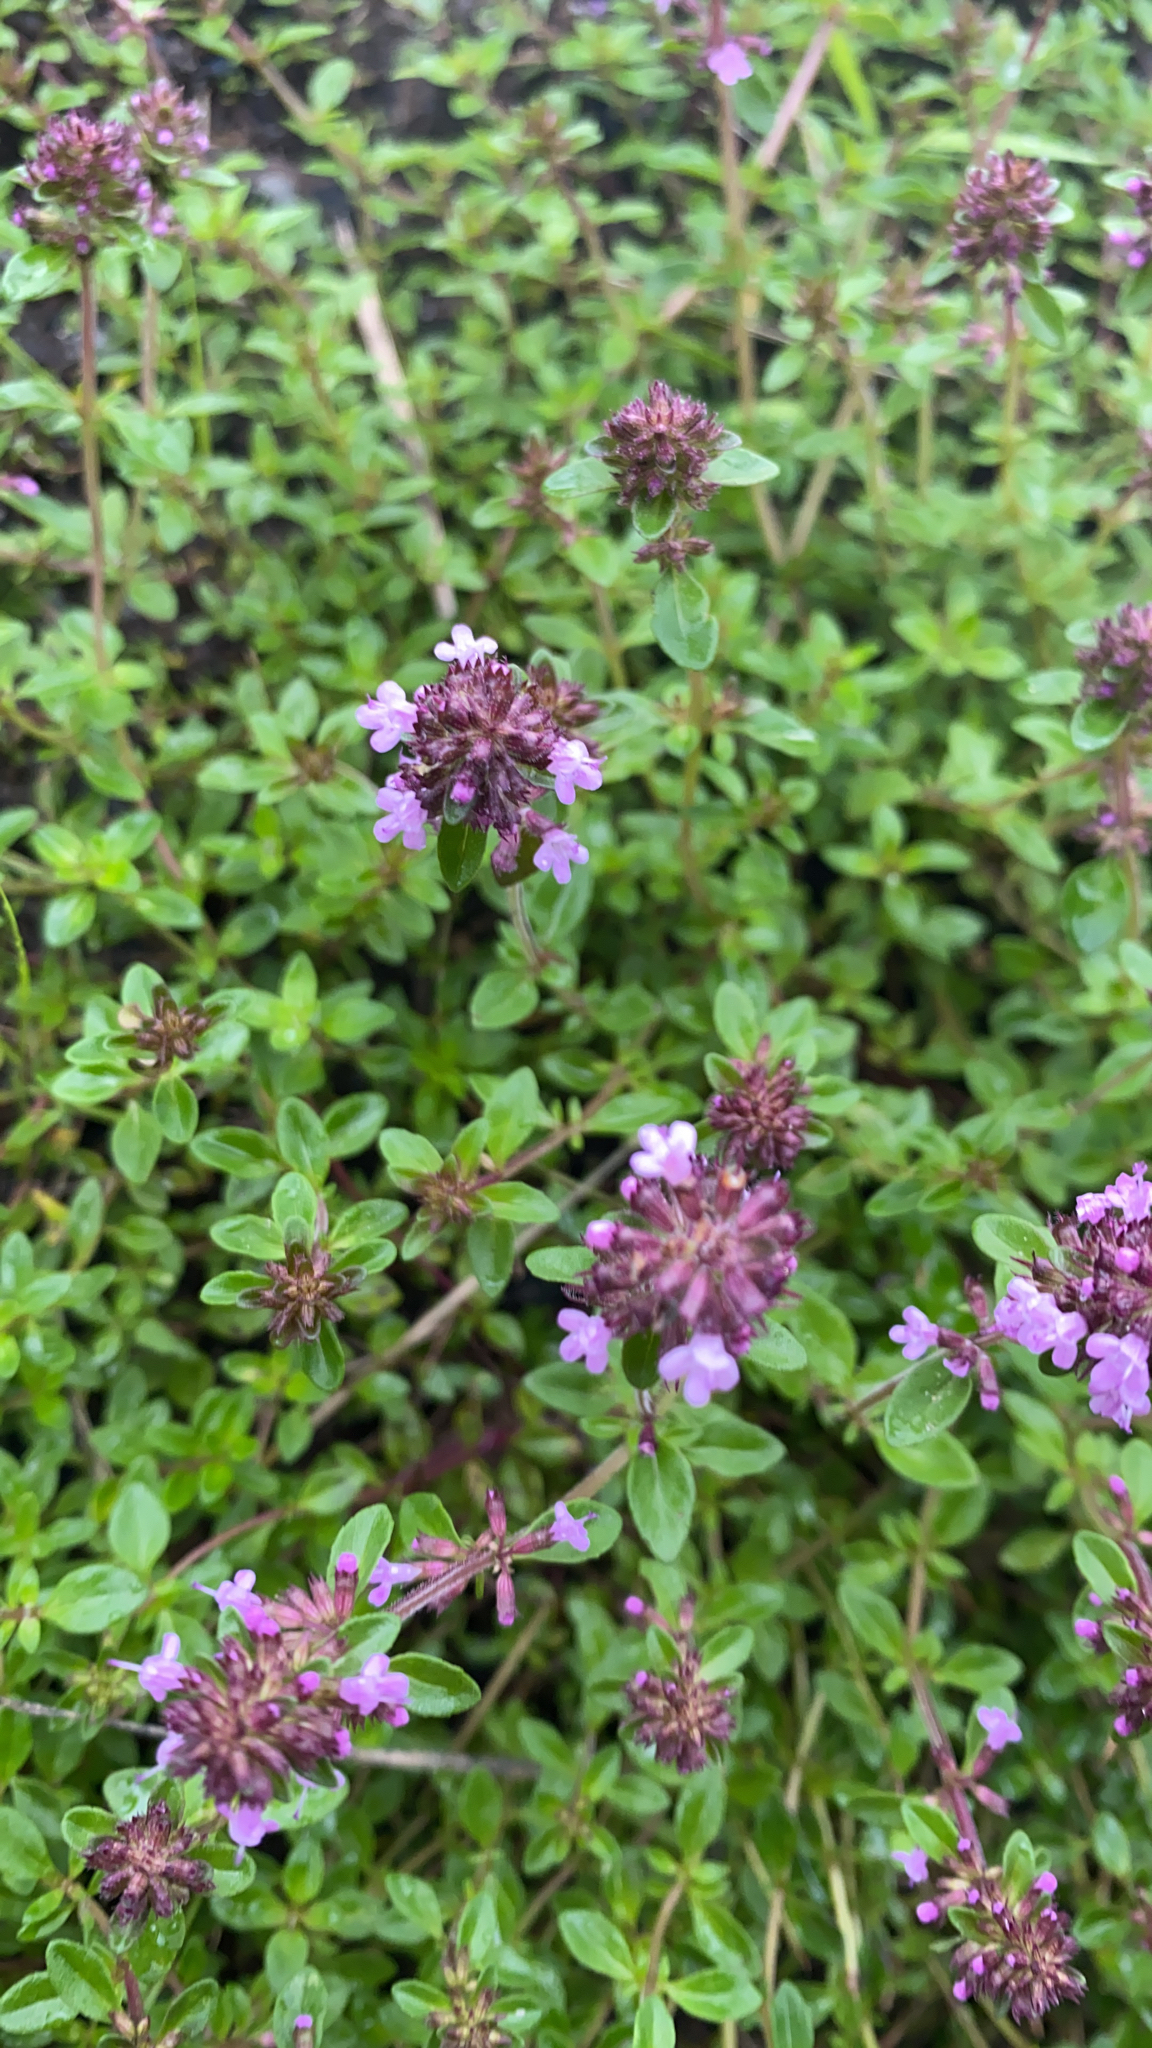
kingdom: Plantae
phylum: Tracheophyta
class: Magnoliopsida
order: Lamiales
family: Lamiaceae
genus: Thymus
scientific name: Thymus pulegioides
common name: Large thyme
